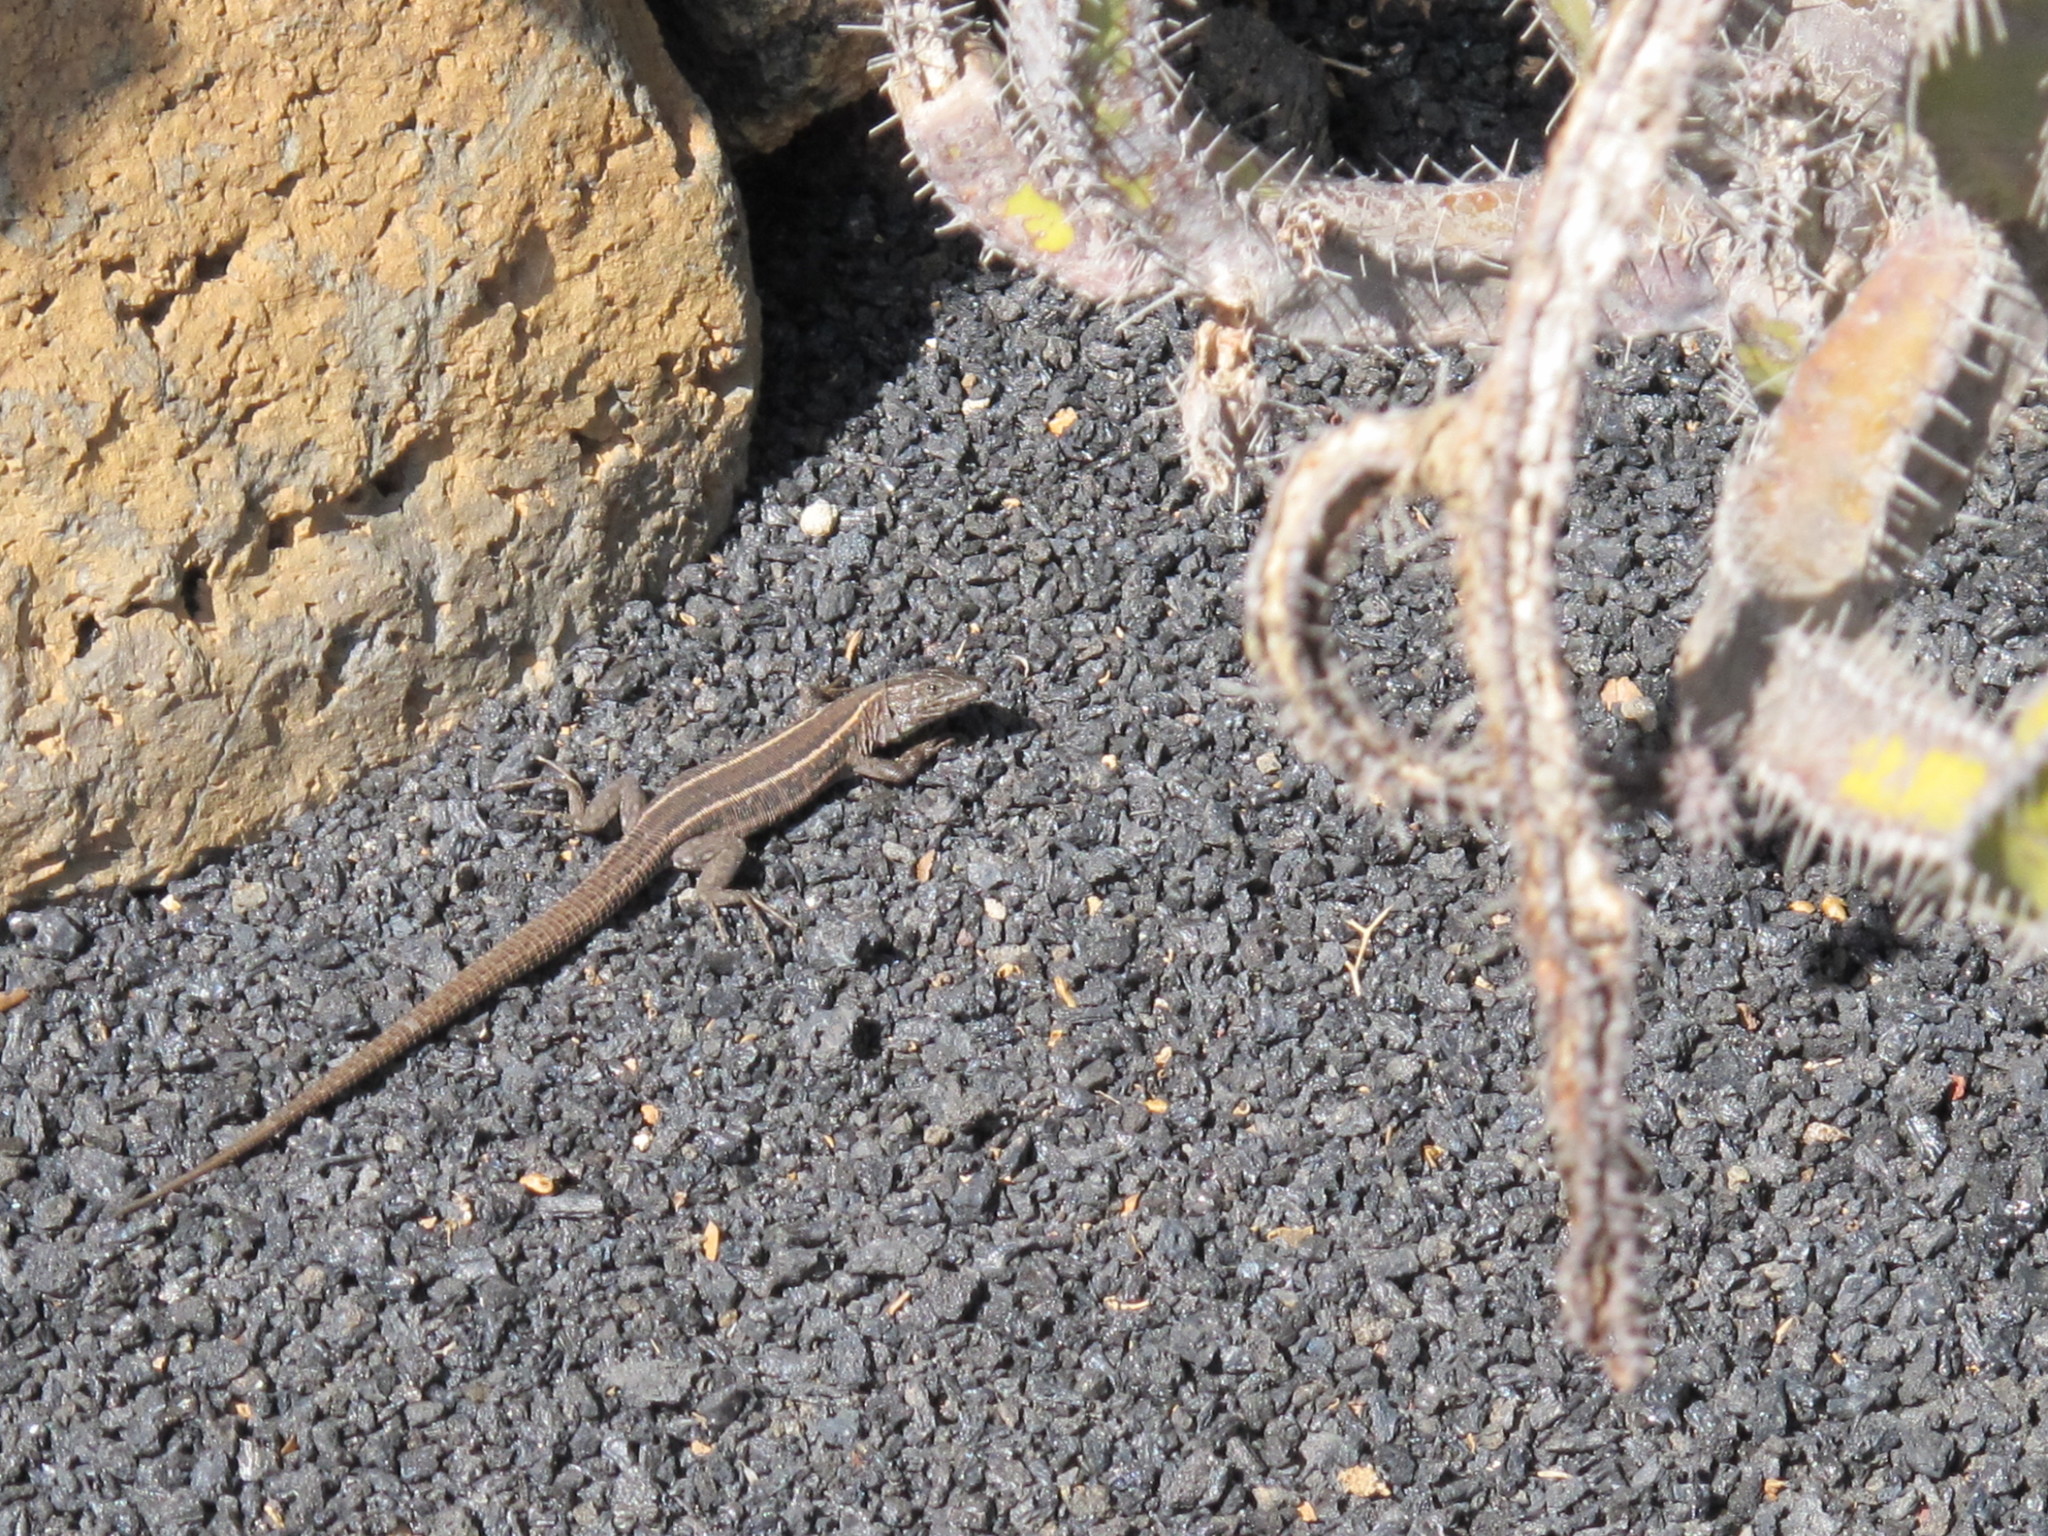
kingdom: Animalia
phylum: Chordata
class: Squamata
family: Lacertidae
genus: Gallotia
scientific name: Gallotia atlantica
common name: Atlantic lizard
